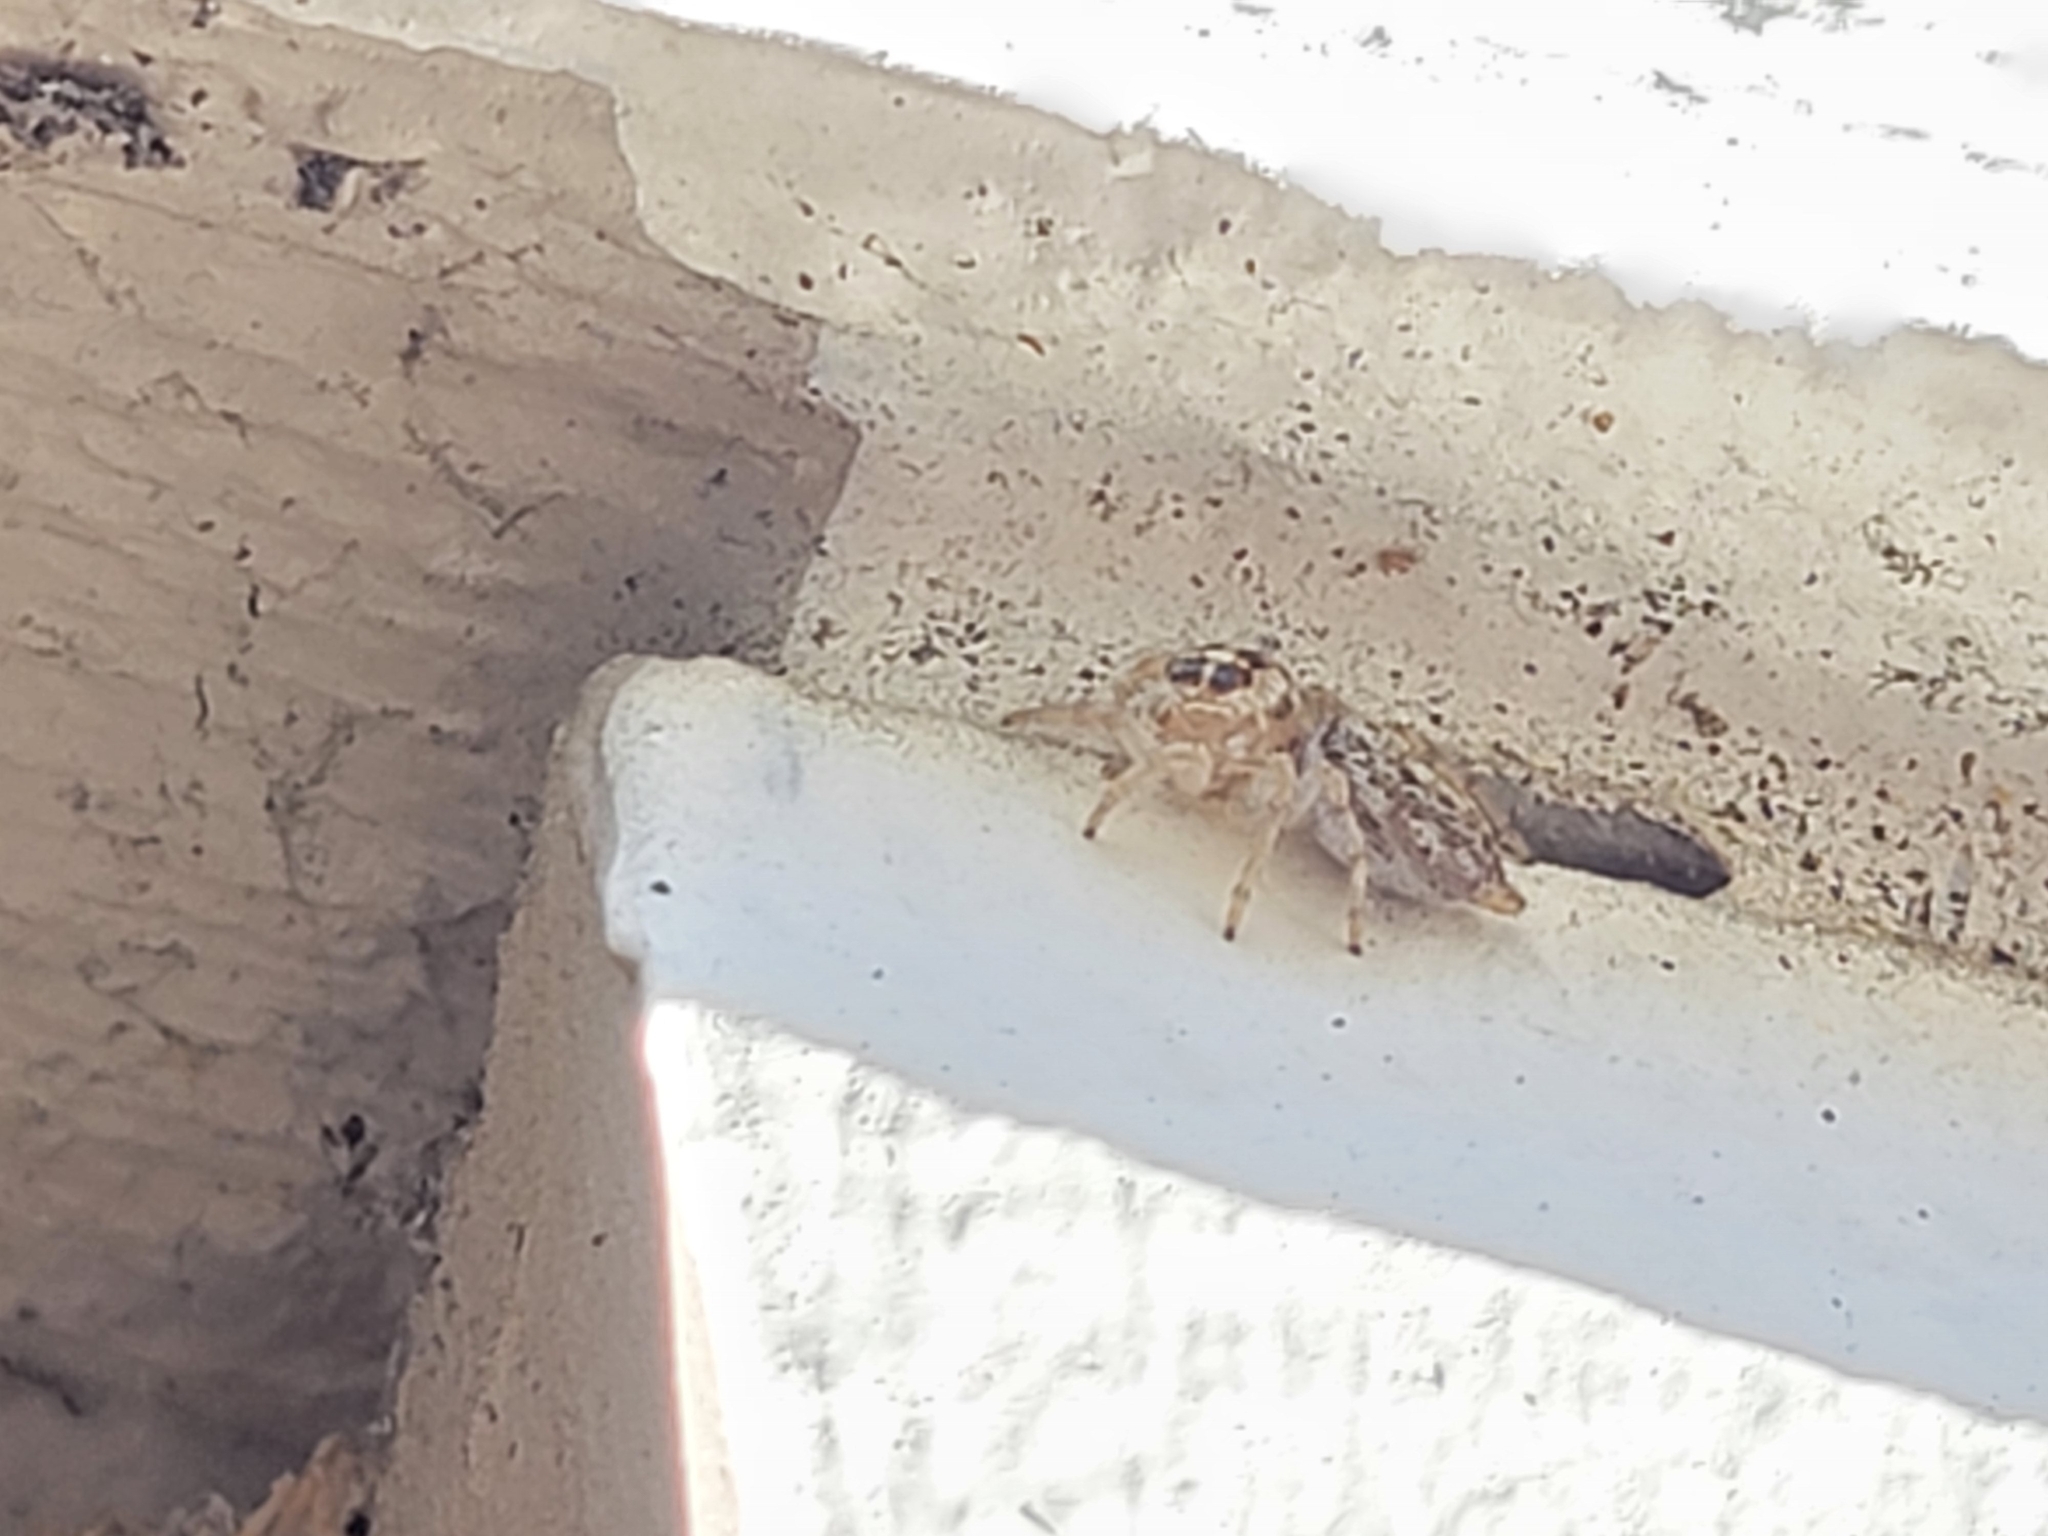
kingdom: Animalia
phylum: Arthropoda
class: Arachnida
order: Araneae
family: Salticidae
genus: Colonus
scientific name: Colonus hesperus
